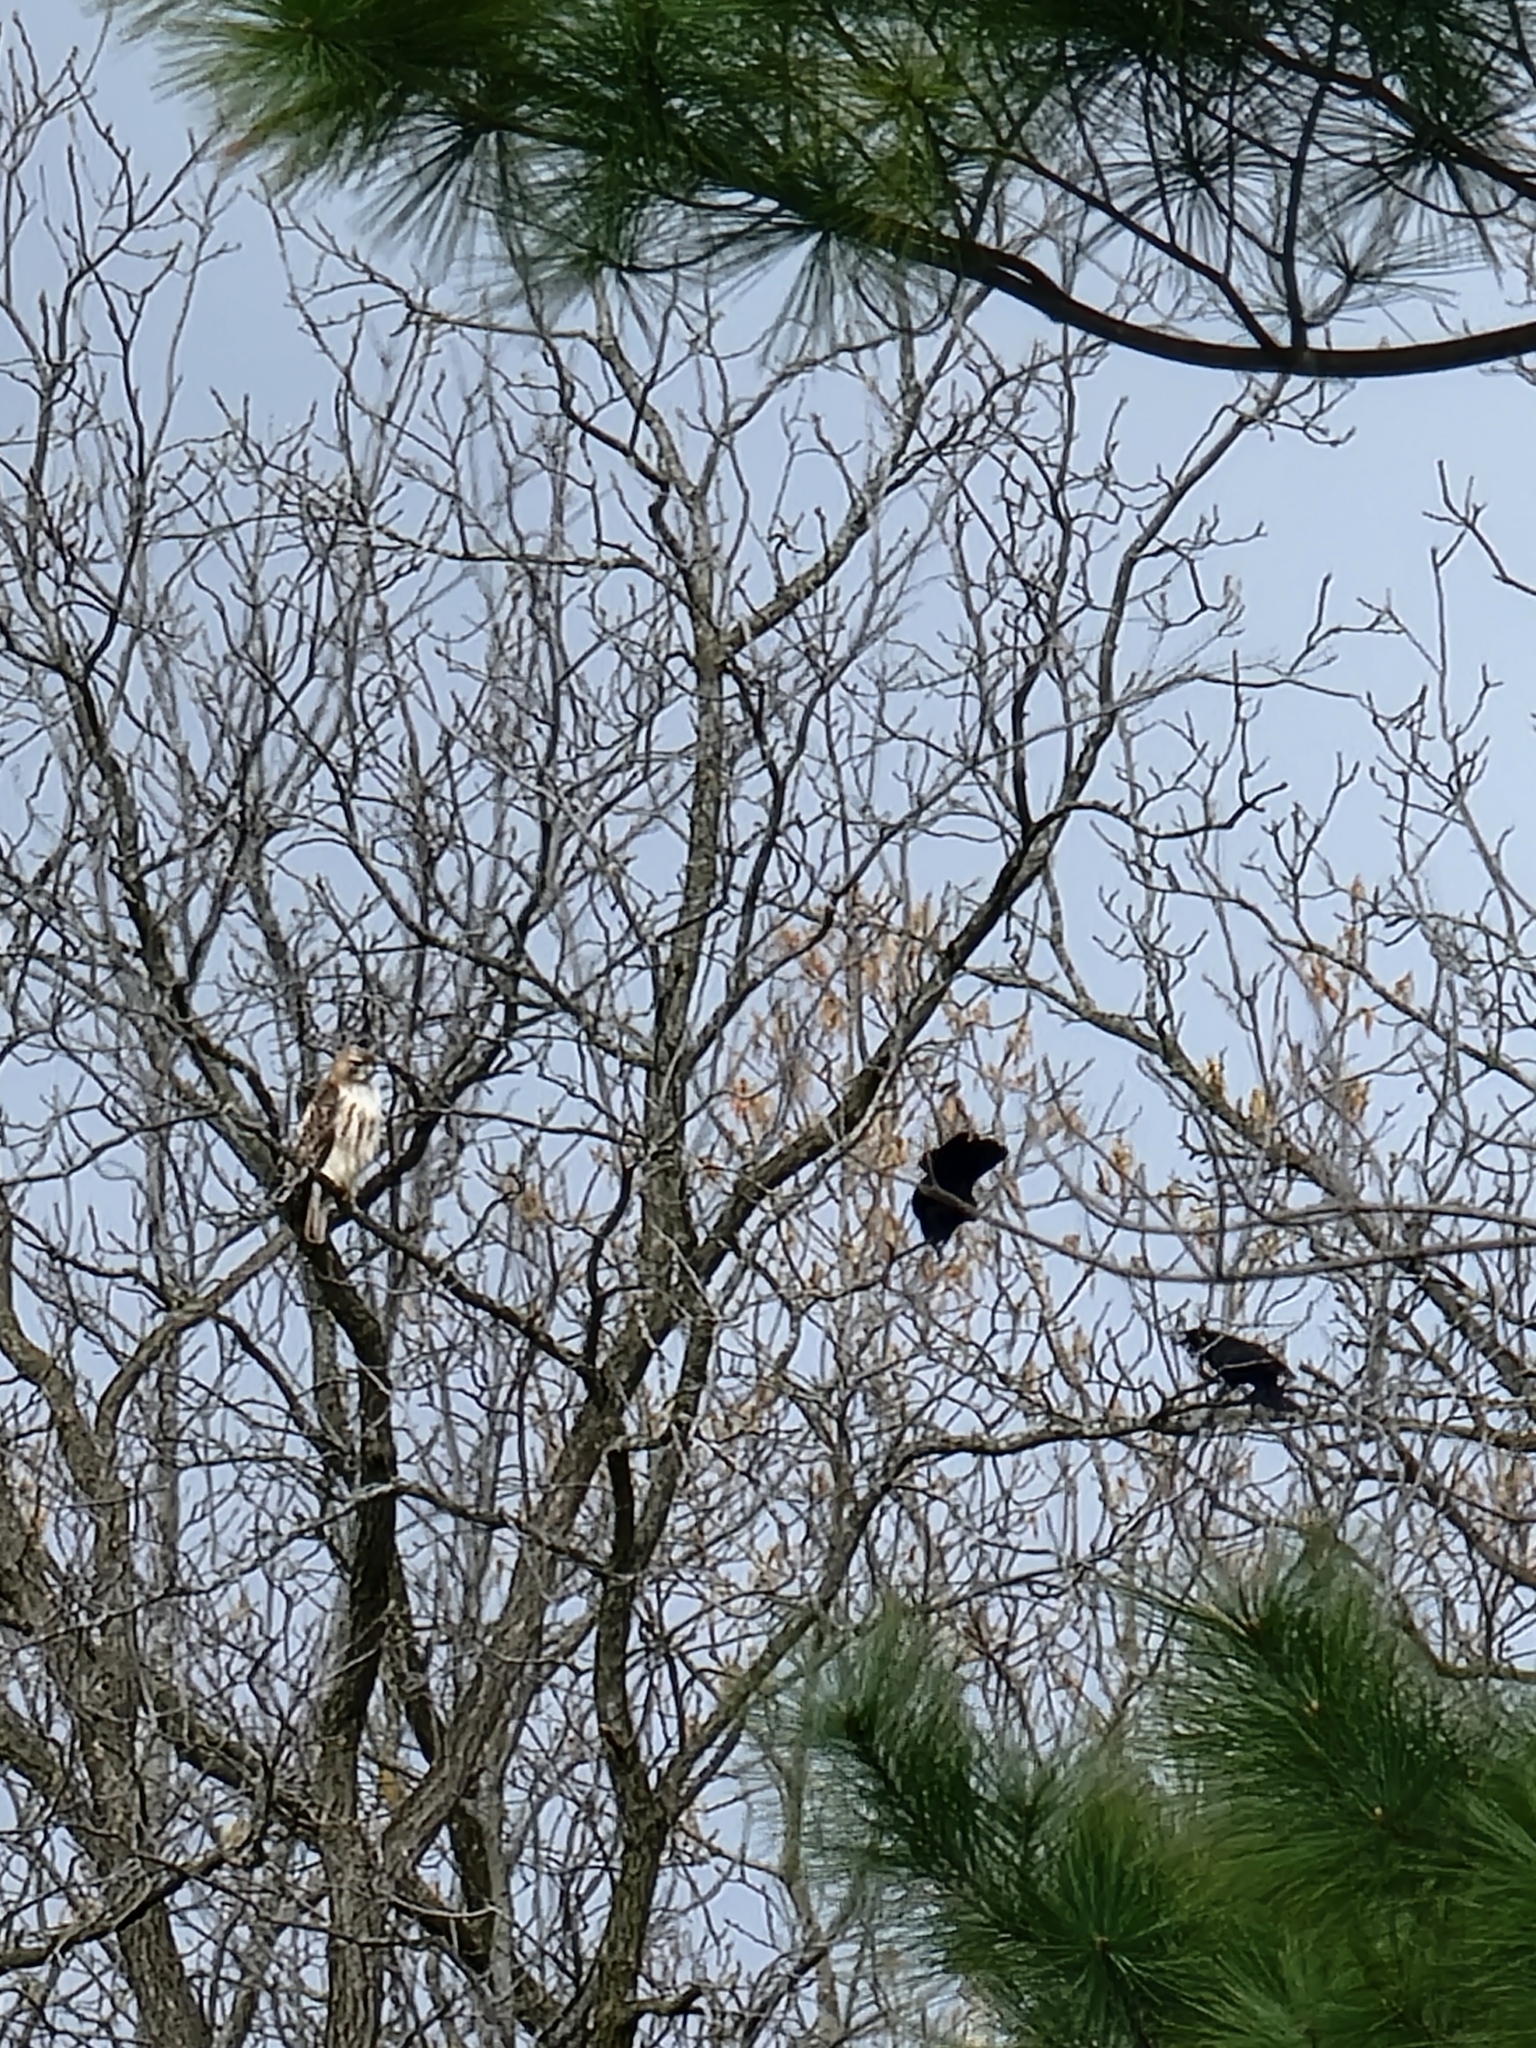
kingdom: Animalia
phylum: Chordata
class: Aves
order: Accipitriformes
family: Accipitridae
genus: Buteo
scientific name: Buteo jamaicensis
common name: Red-tailed hawk
